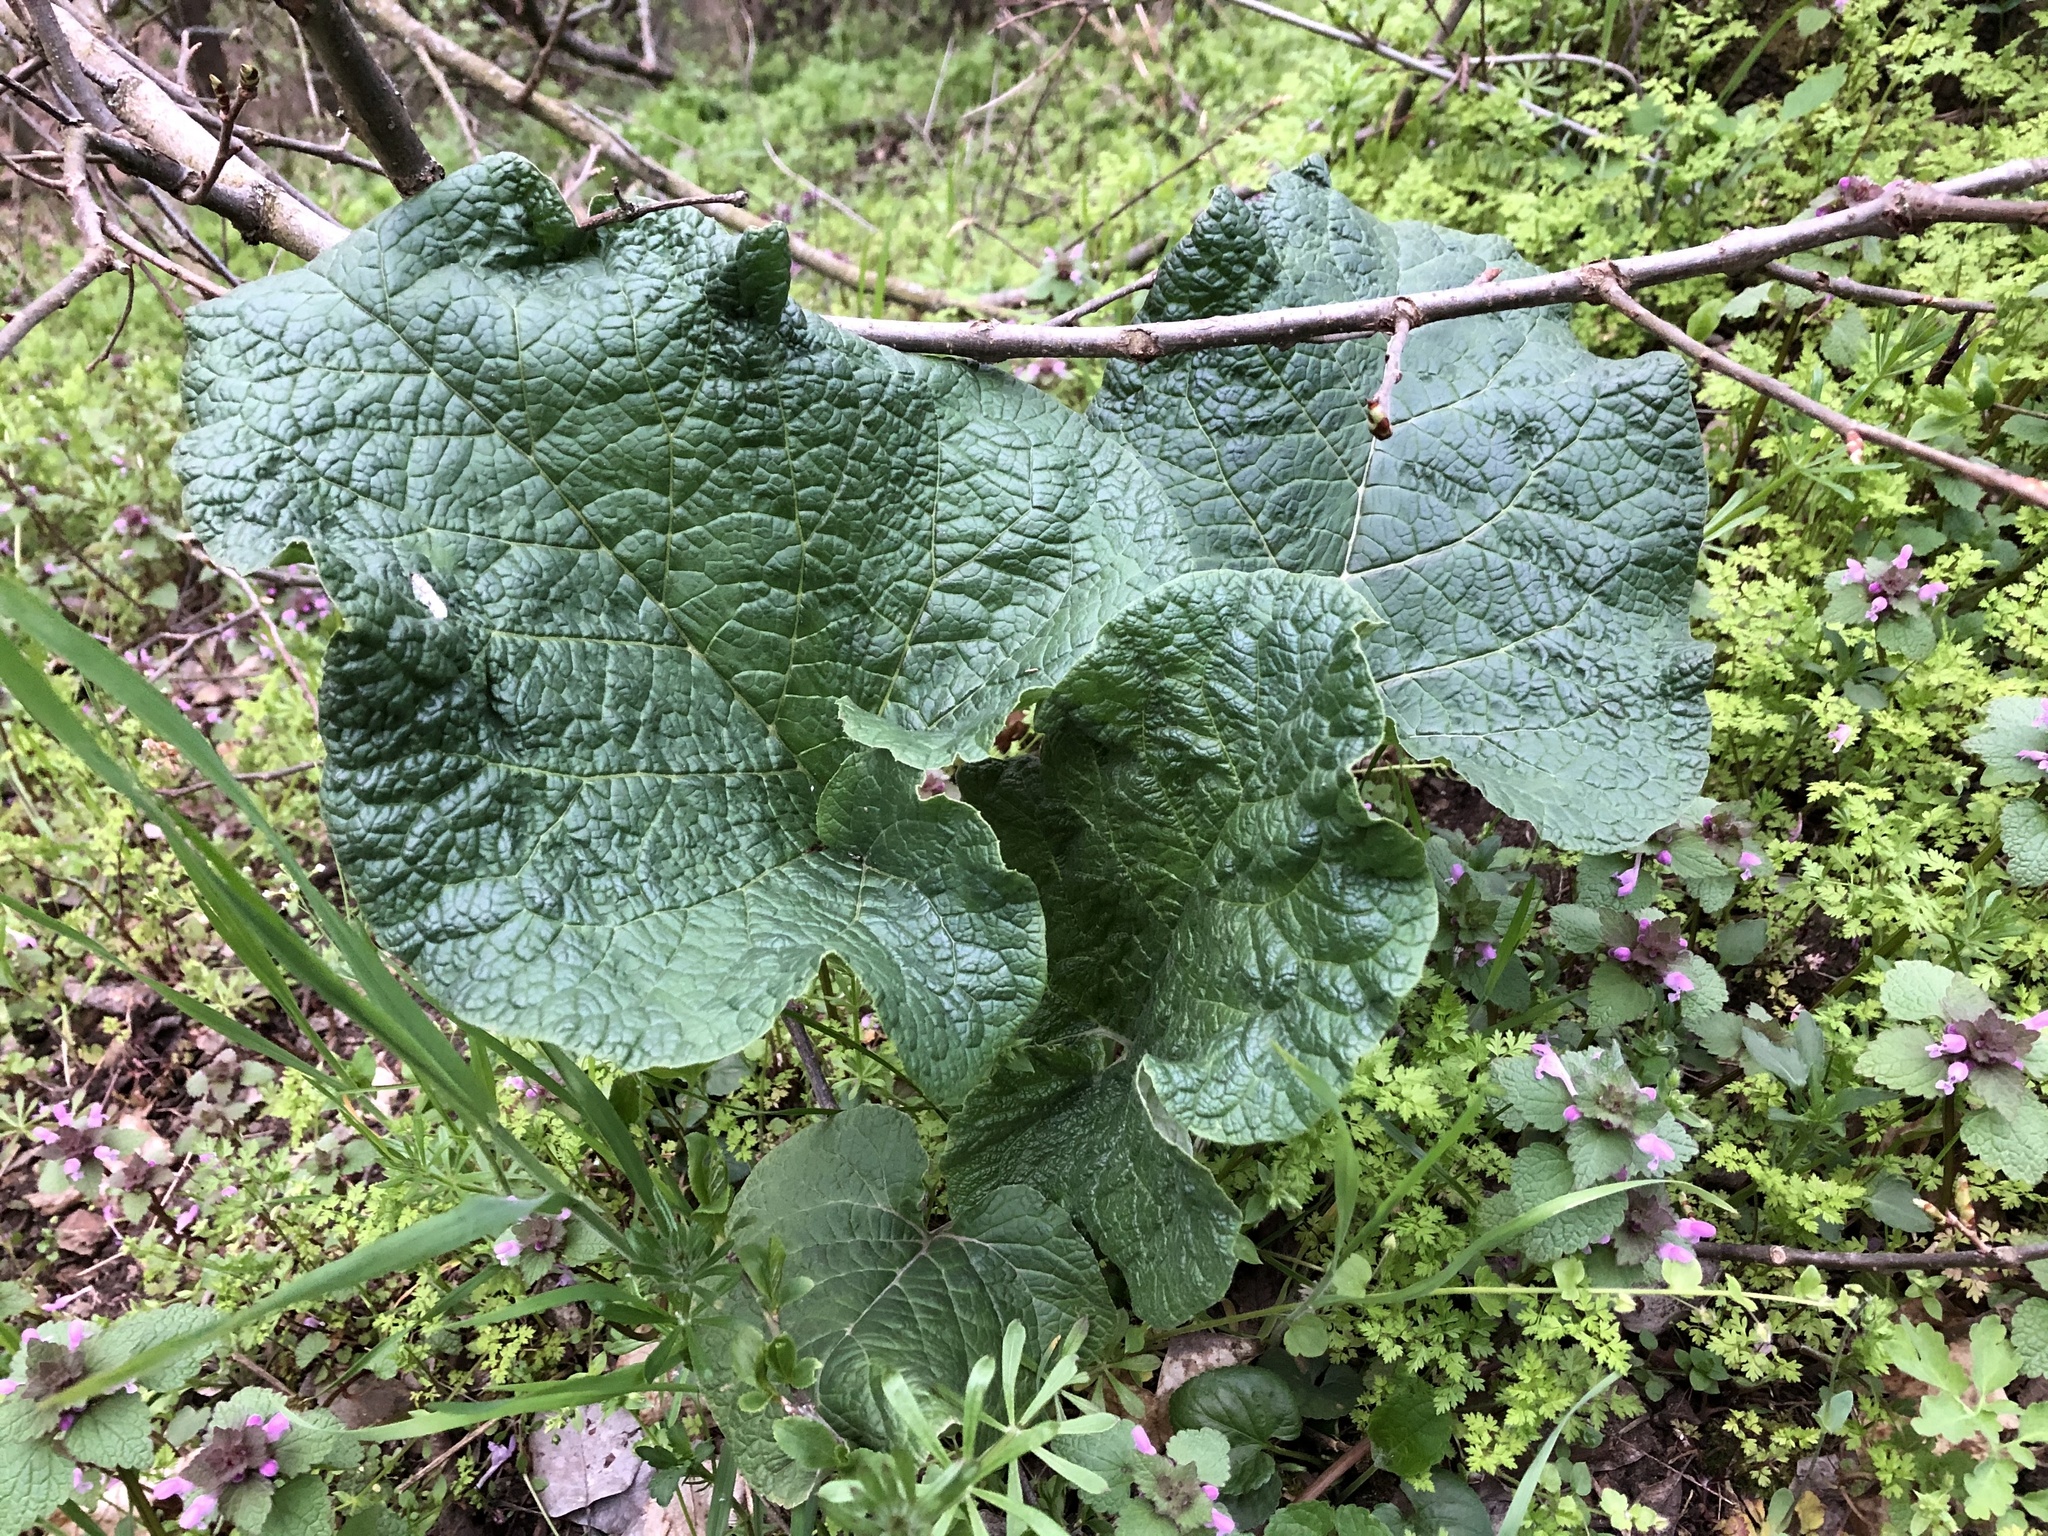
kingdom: Plantae
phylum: Tracheophyta
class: Magnoliopsida
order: Asterales
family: Asteraceae
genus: Arctium
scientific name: Arctium
